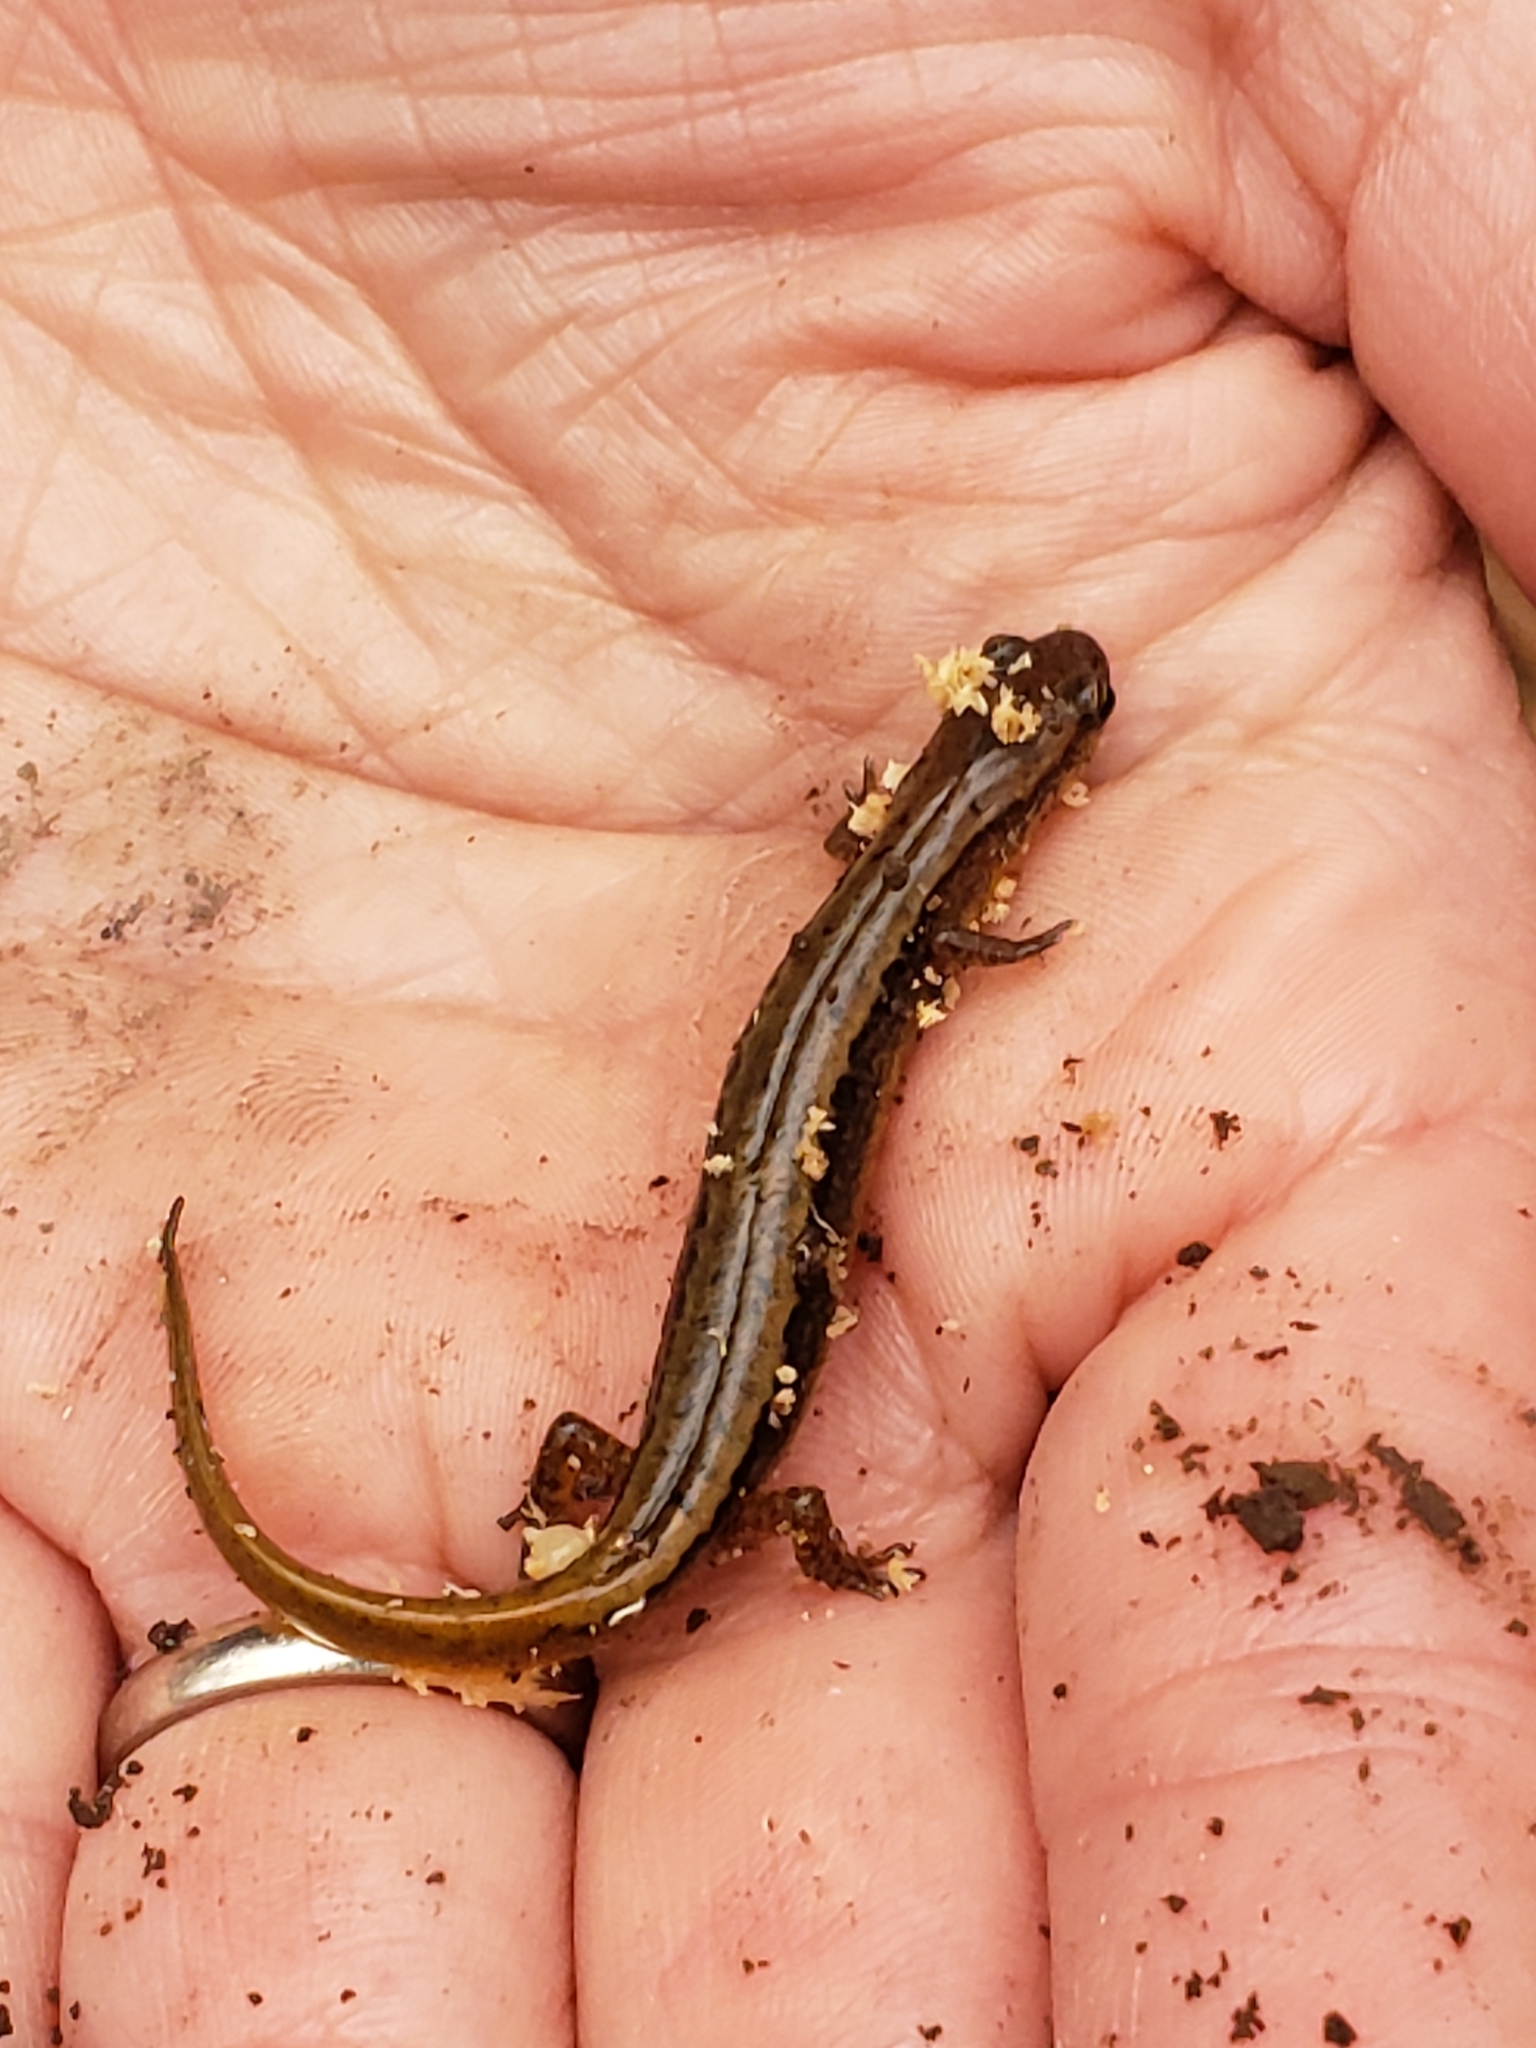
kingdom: Animalia
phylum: Chordata
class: Amphibia
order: Caudata
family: Plethodontidae
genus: Eurycea
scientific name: Eurycea bislineata
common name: Northern two-lined salamander
